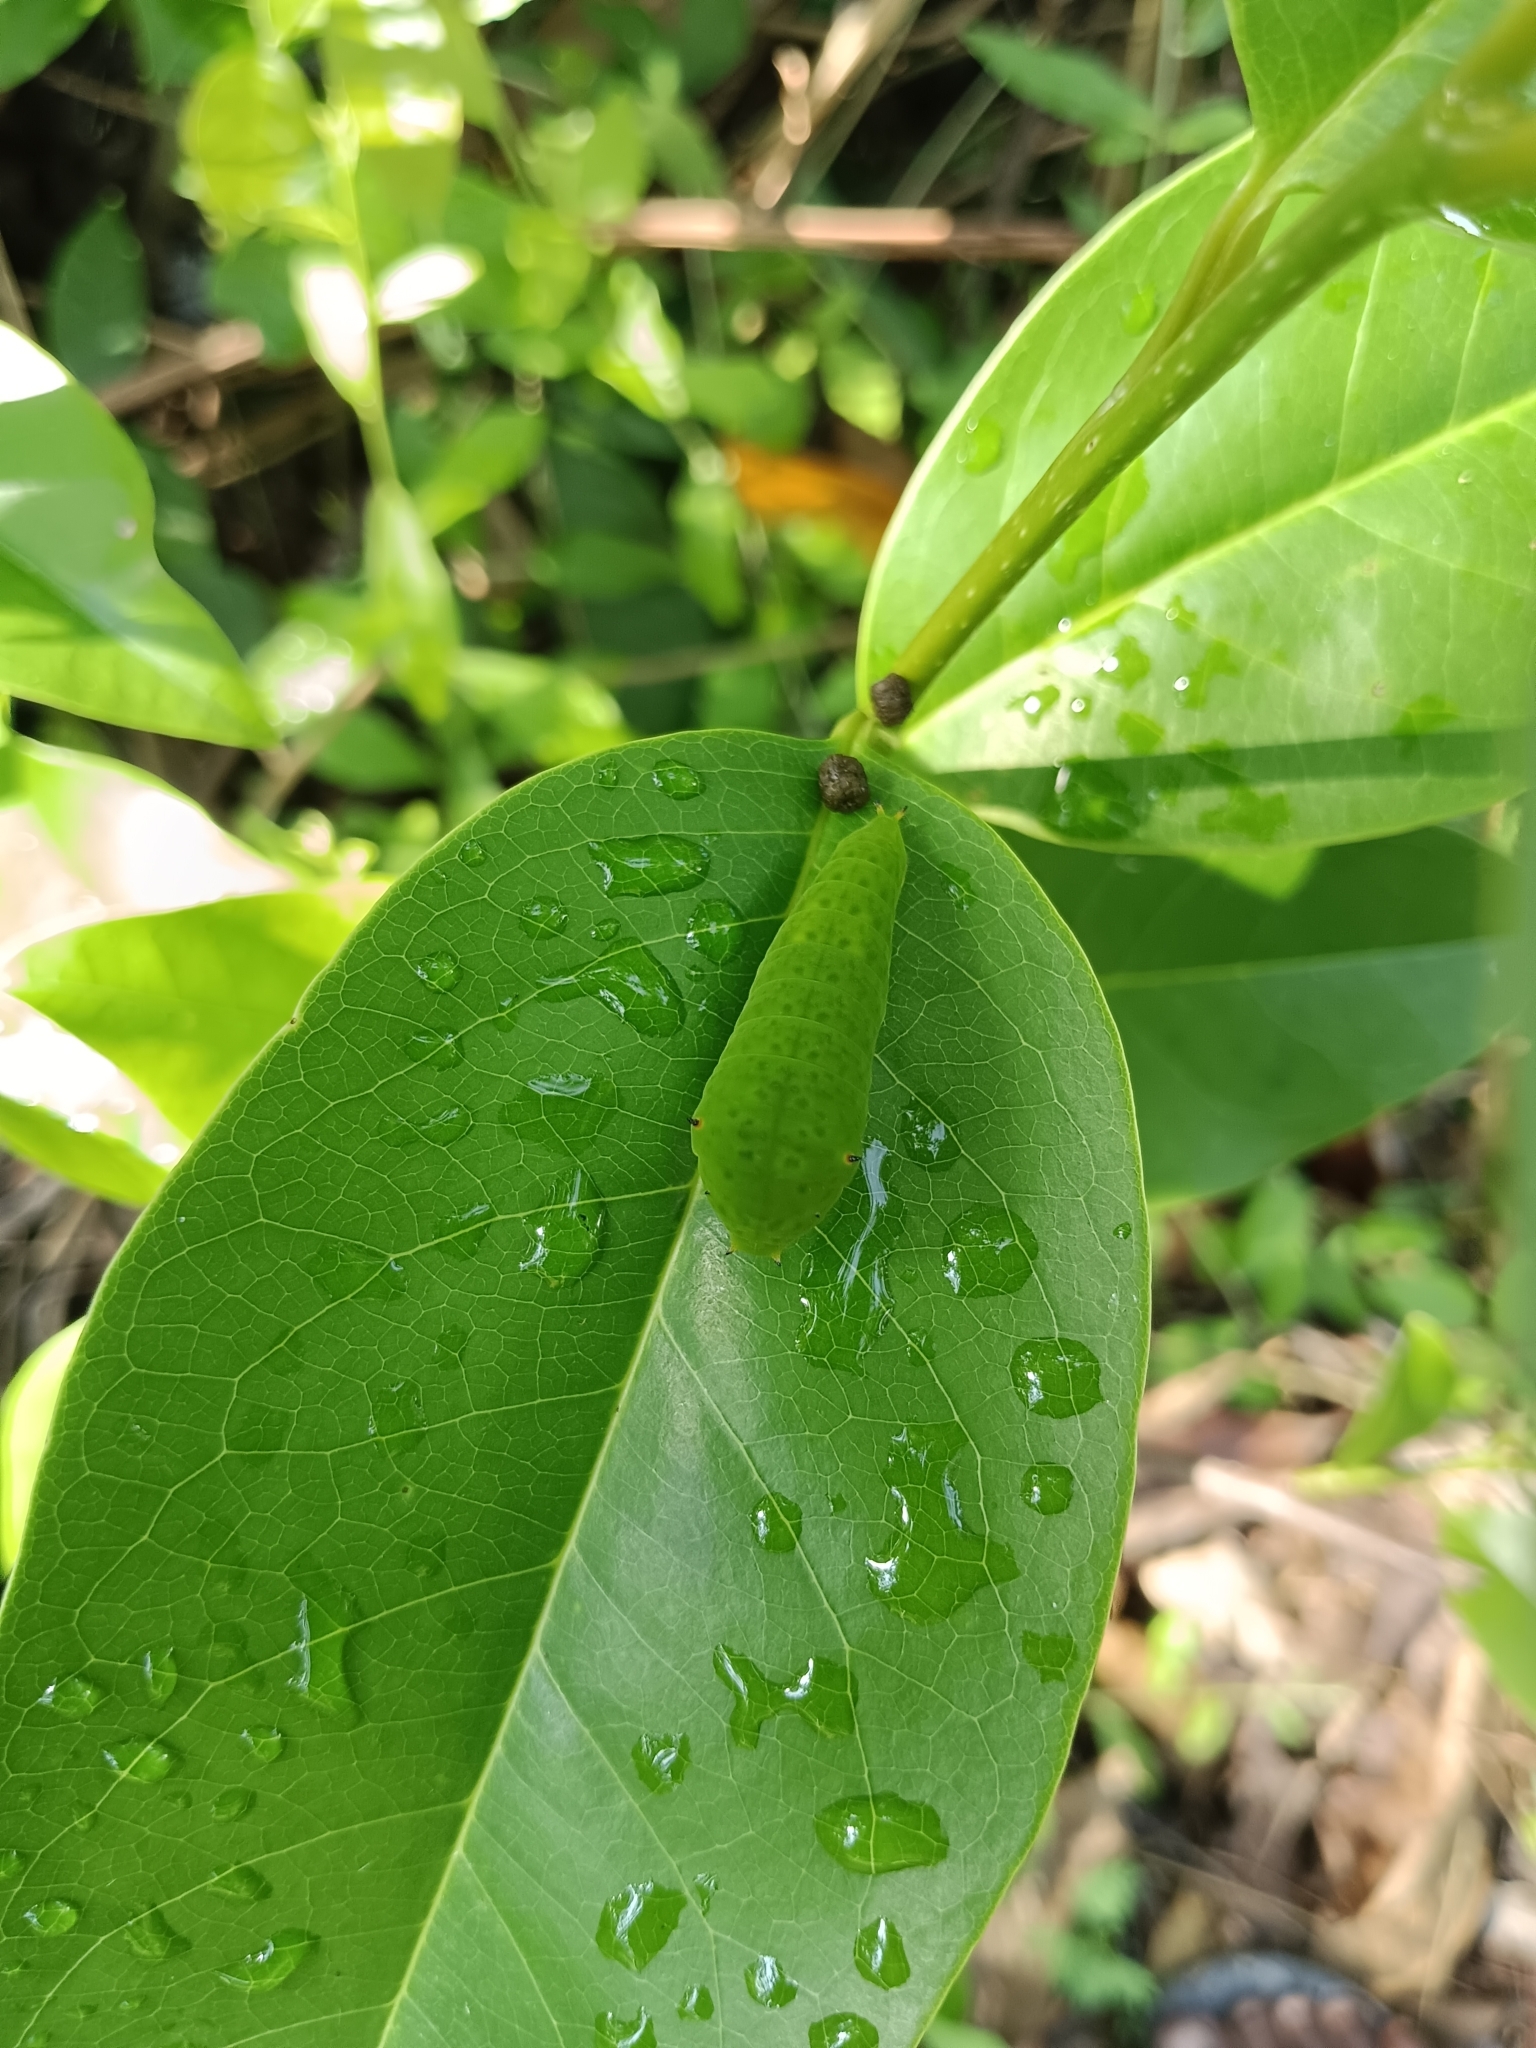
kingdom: Animalia
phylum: Arthropoda
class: Insecta
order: Lepidoptera
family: Papilionidae
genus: Graphium
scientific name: Graphium agamemnon
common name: Tailed jay
